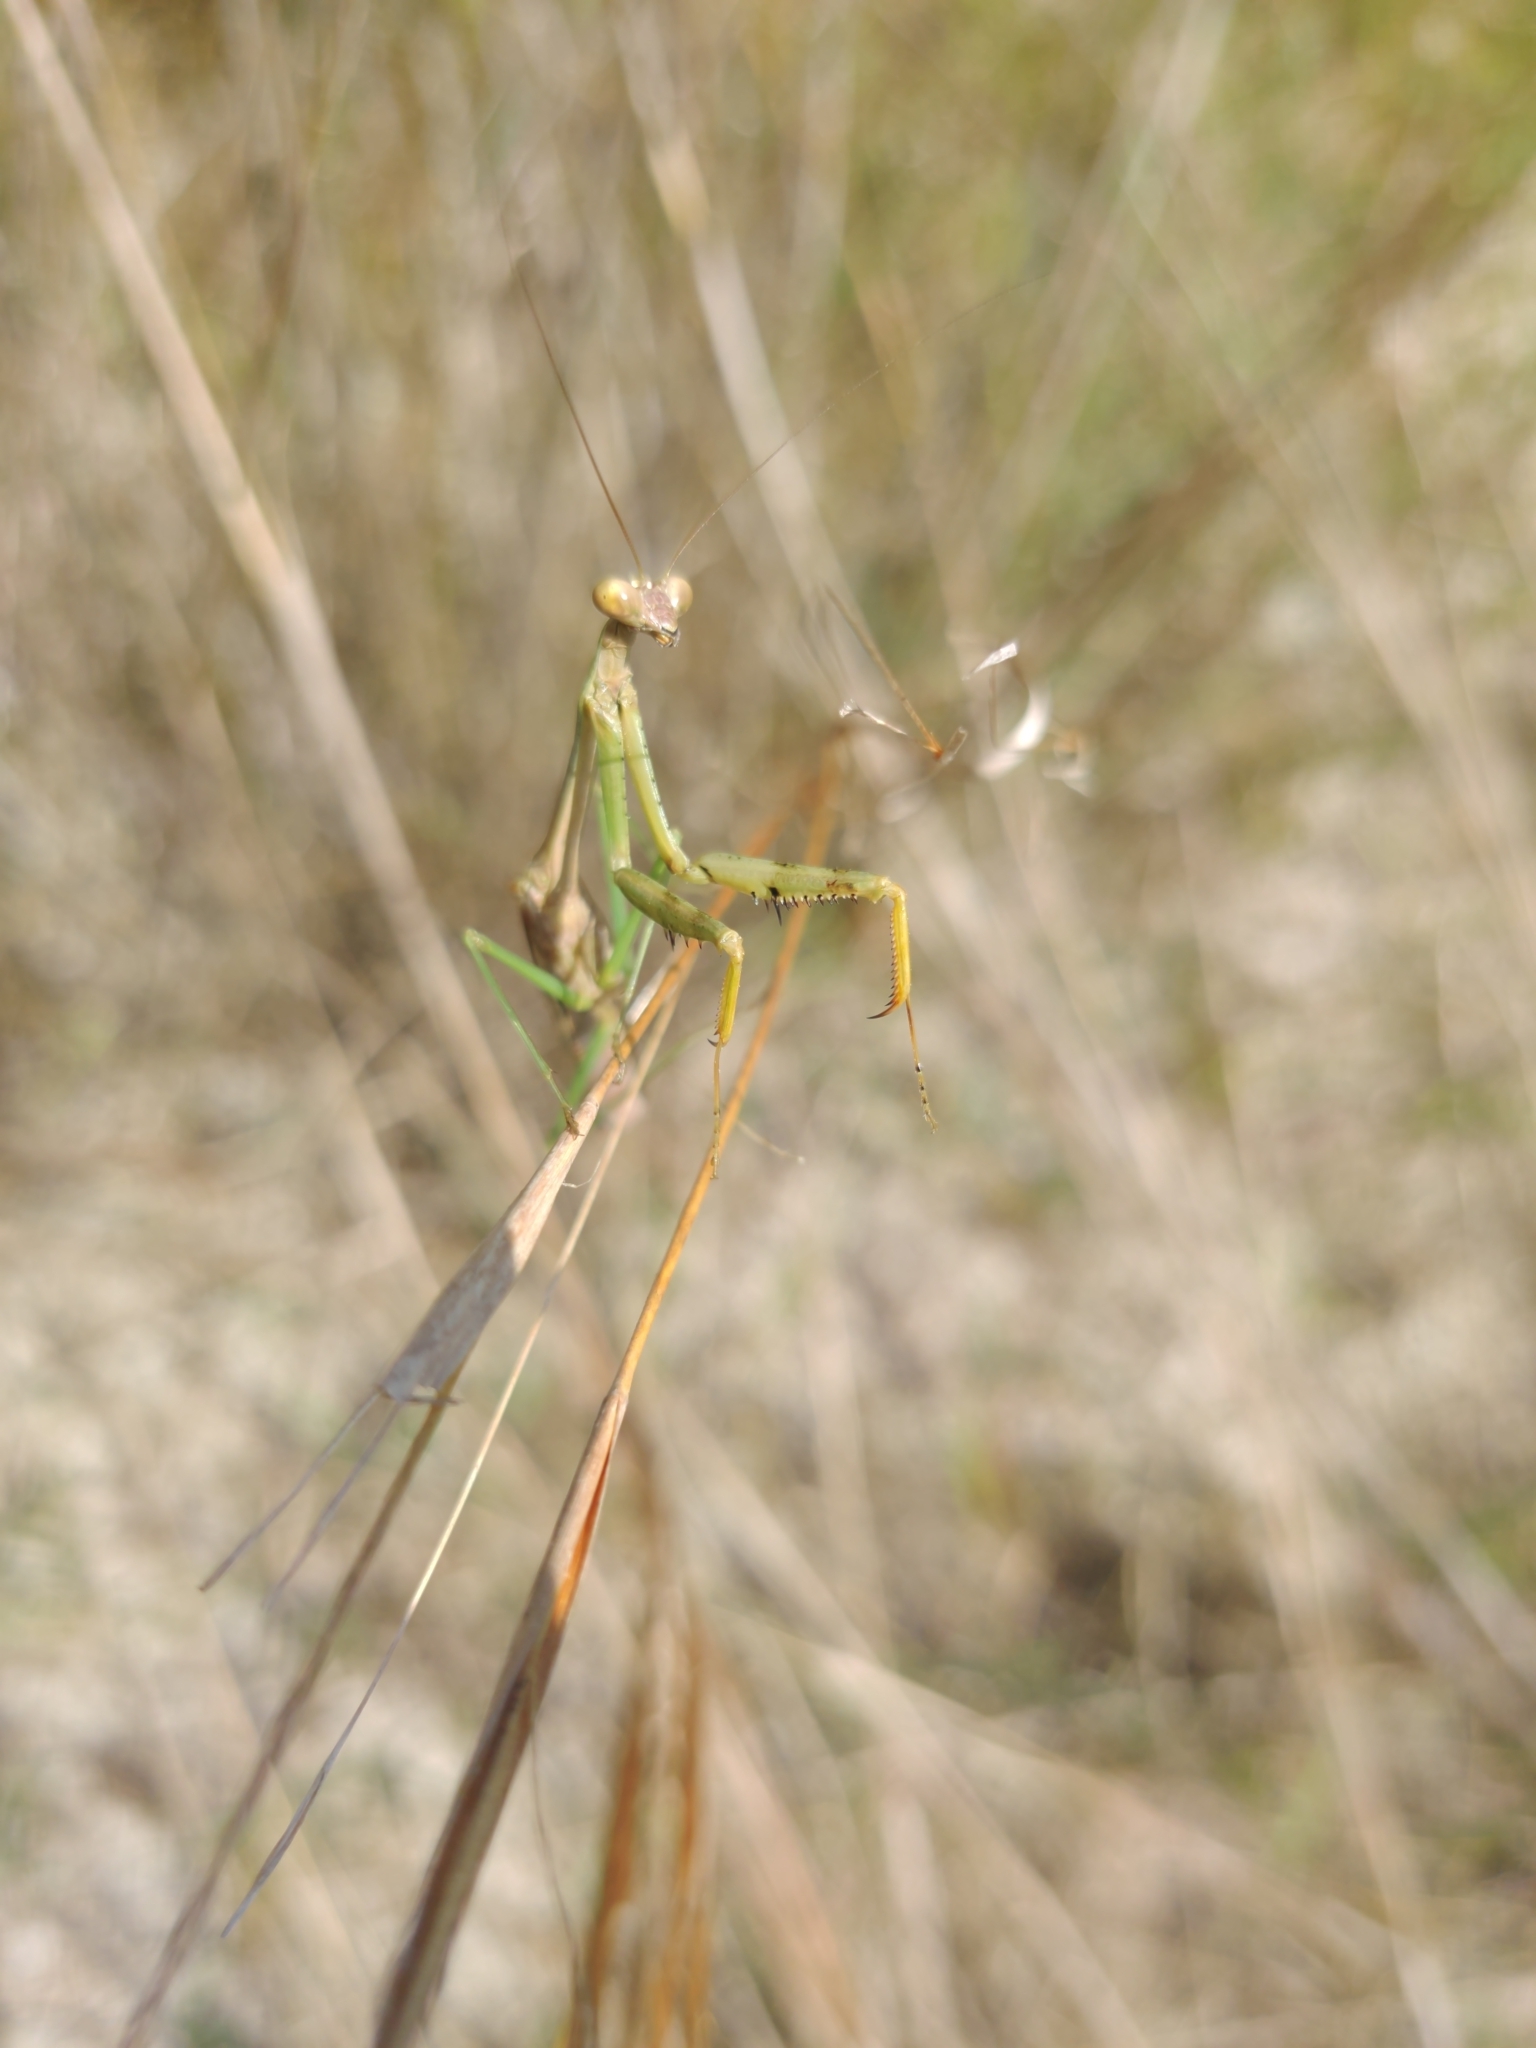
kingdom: Animalia
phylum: Arthropoda
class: Insecta
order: Mantodea
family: Mantidae
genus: Stagmomantis
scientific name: Stagmomantis carolina
